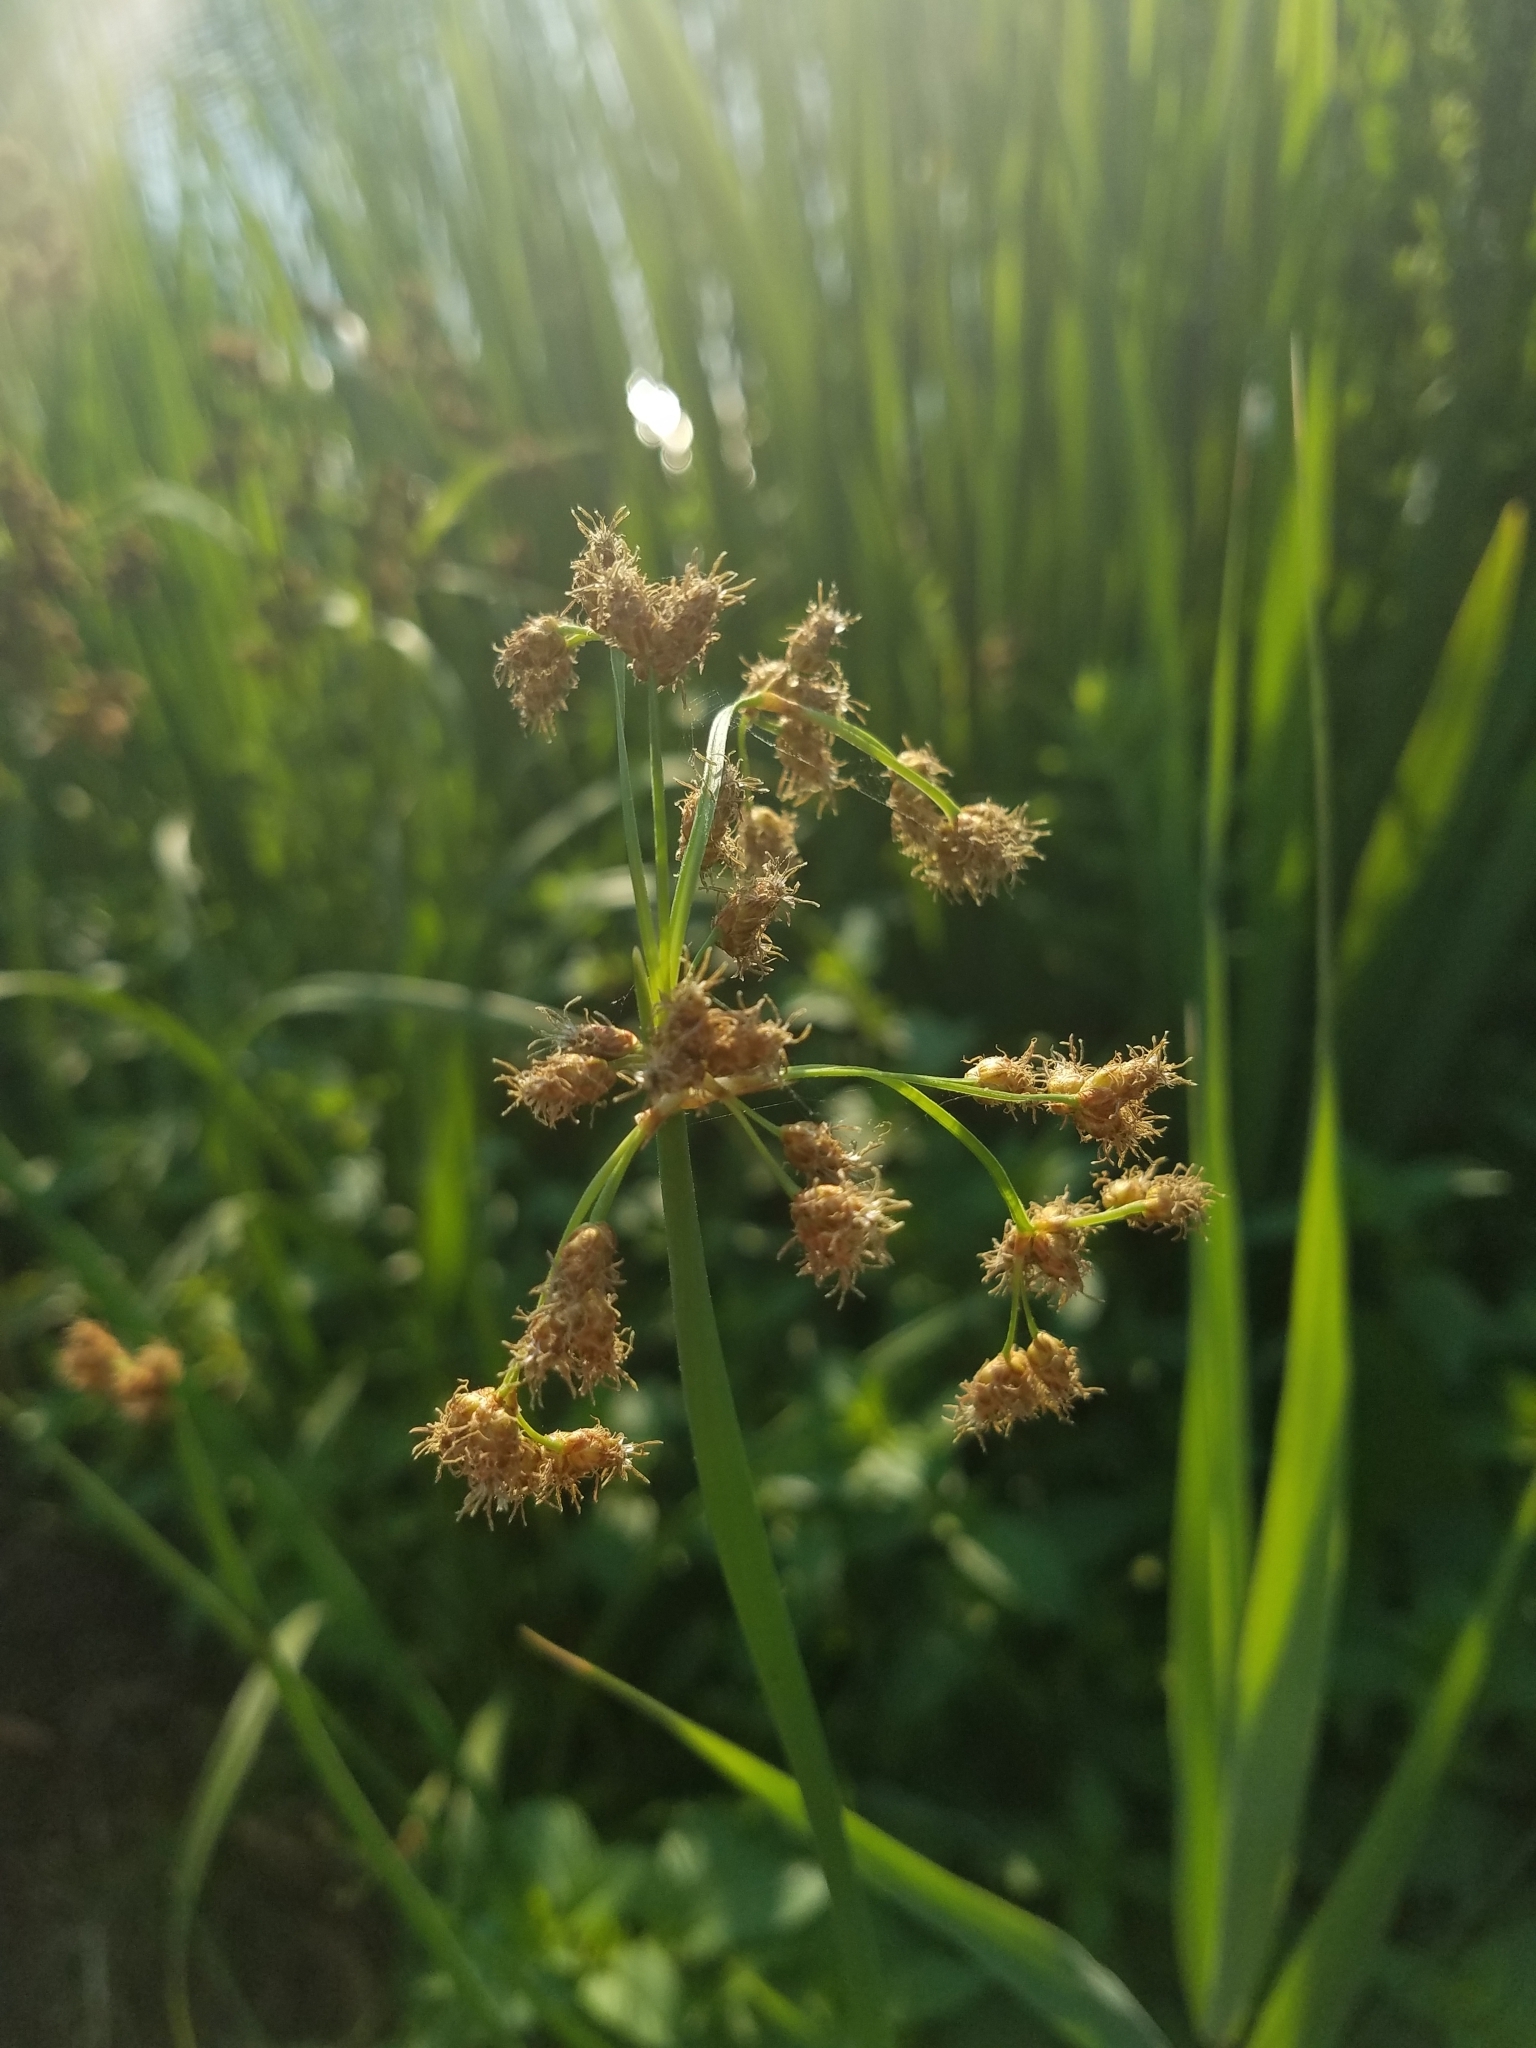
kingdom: Plantae
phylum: Tracheophyta
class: Liliopsida
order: Poales
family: Cyperaceae
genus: Schoenoplectus
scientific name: Schoenoplectus tabernaemontani
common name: Grey club-rush
